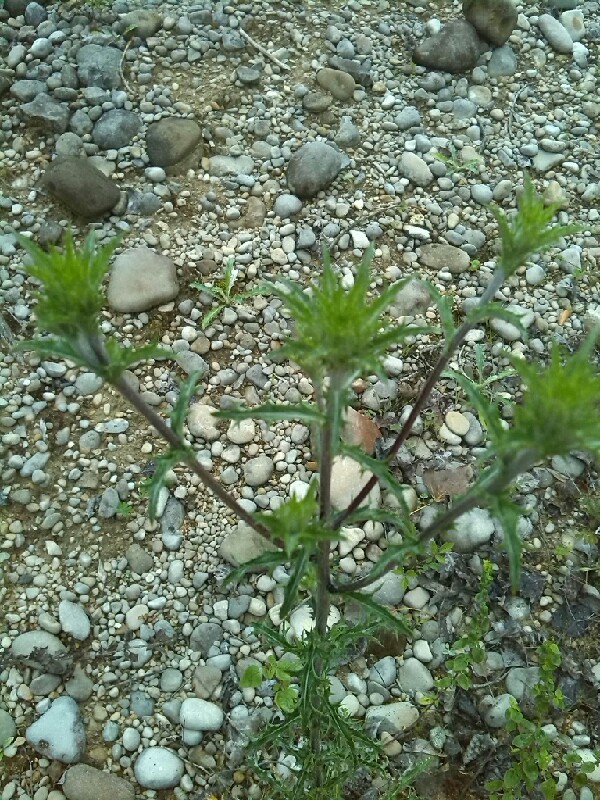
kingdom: Plantae
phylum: Tracheophyta
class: Magnoliopsida
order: Asterales
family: Asteraceae
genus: Carlina
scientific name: Carlina vulgaris
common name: Carline thistle
